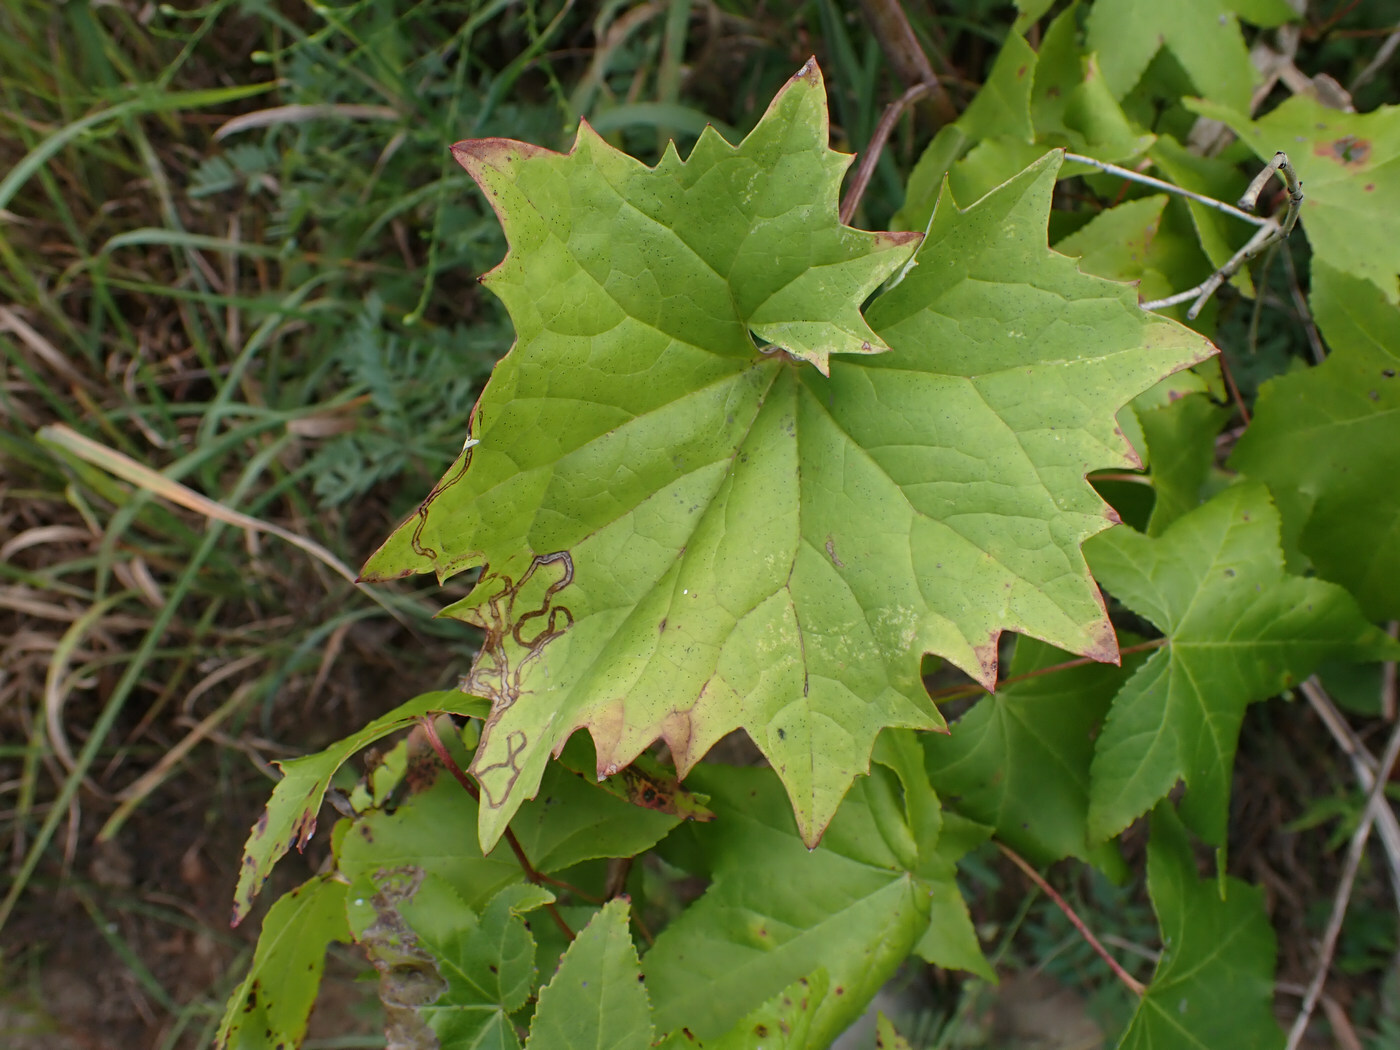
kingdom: Animalia
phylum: Arthropoda
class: Insecta
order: Lepidoptera
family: Gracillariidae
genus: Phyllocnistis
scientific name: Phyllocnistis insignis
